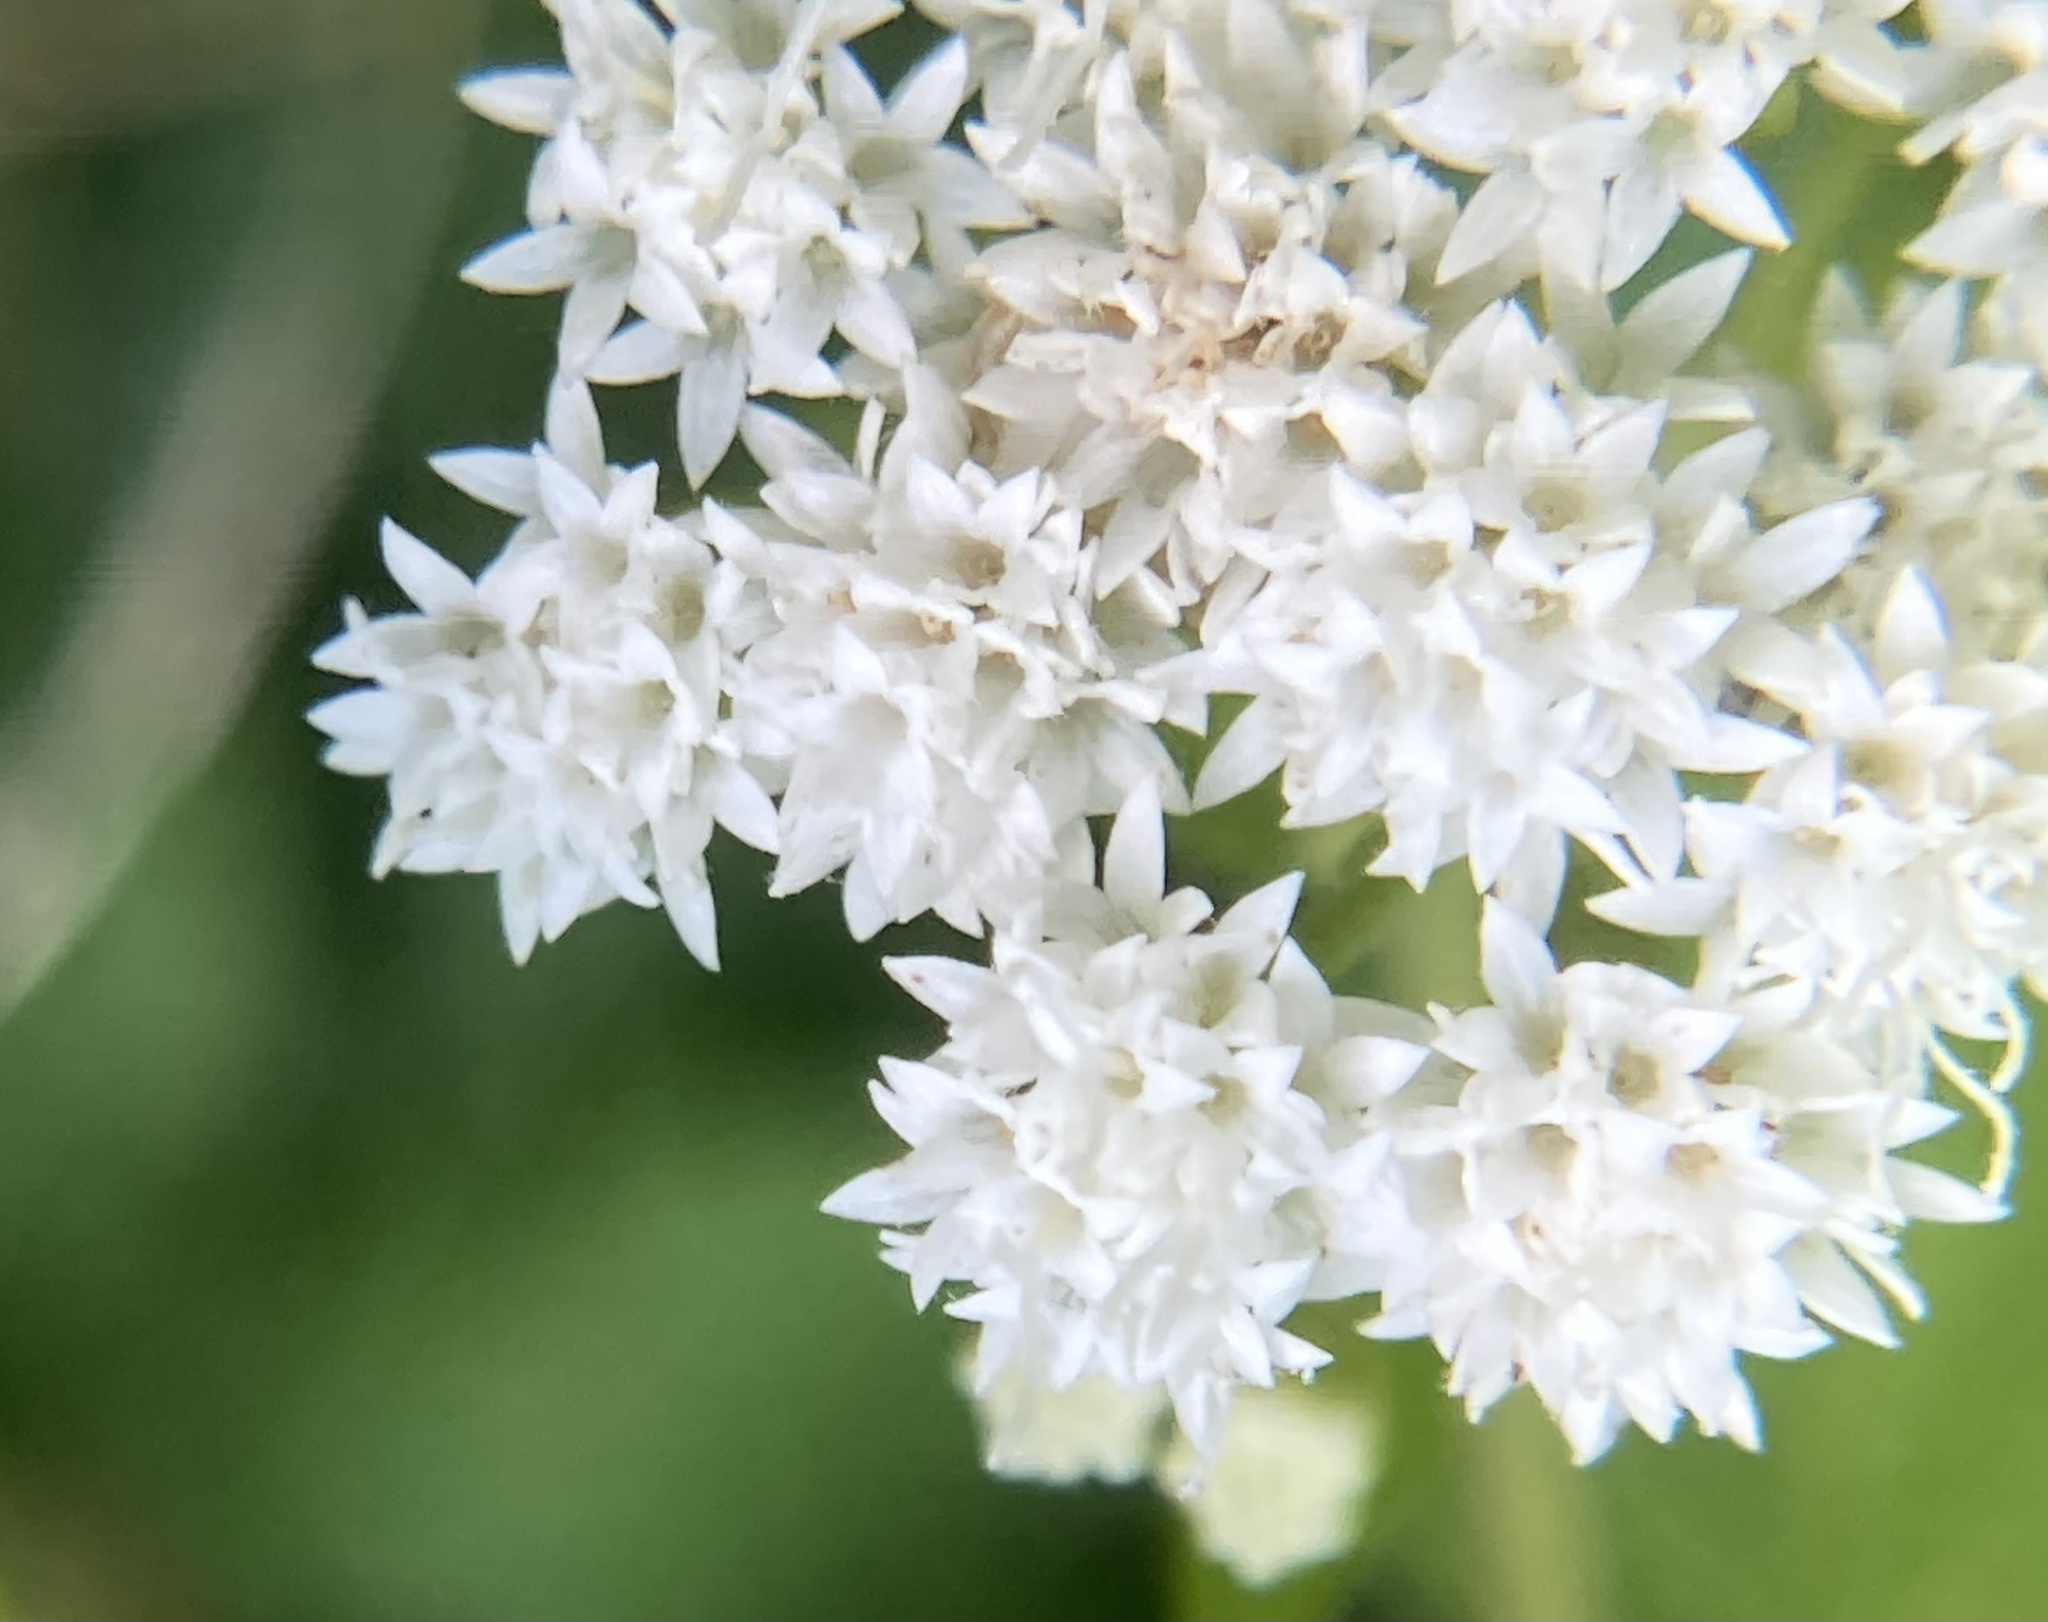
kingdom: Plantae
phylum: Tracheophyta
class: Magnoliopsida
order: Asterales
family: Asteraceae
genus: Ageratina
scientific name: Ageratina altissima
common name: White snakeroot
